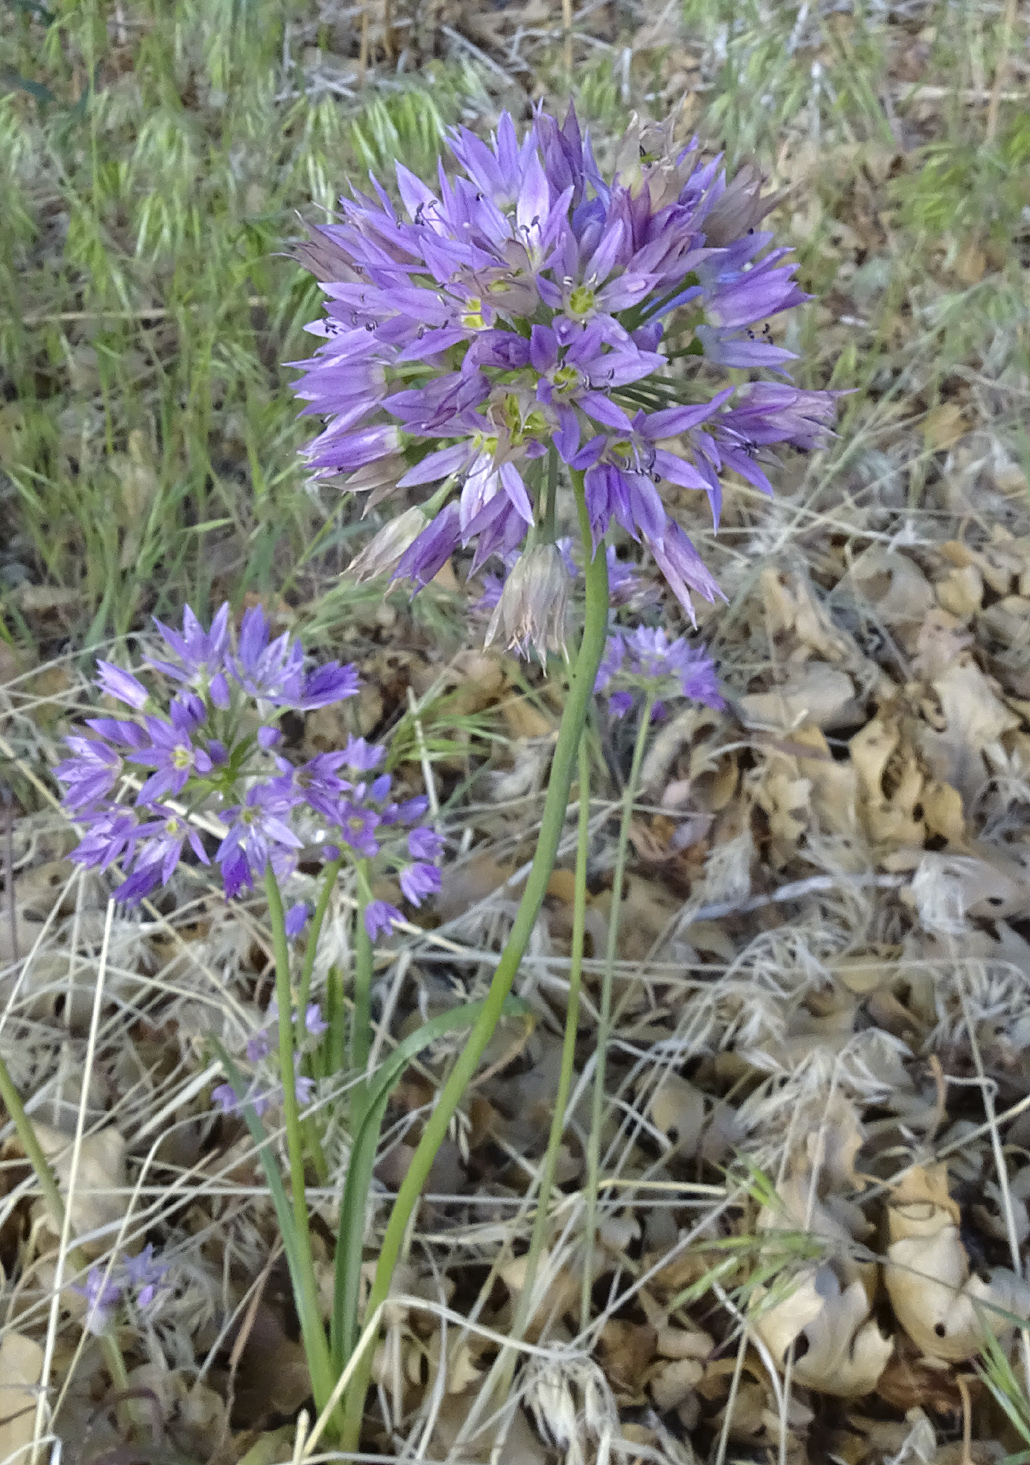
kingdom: Plantae
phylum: Tracheophyta
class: Liliopsida
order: Asparagales
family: Amaryllidaceae
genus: Allium
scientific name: Allium bisceptrum
